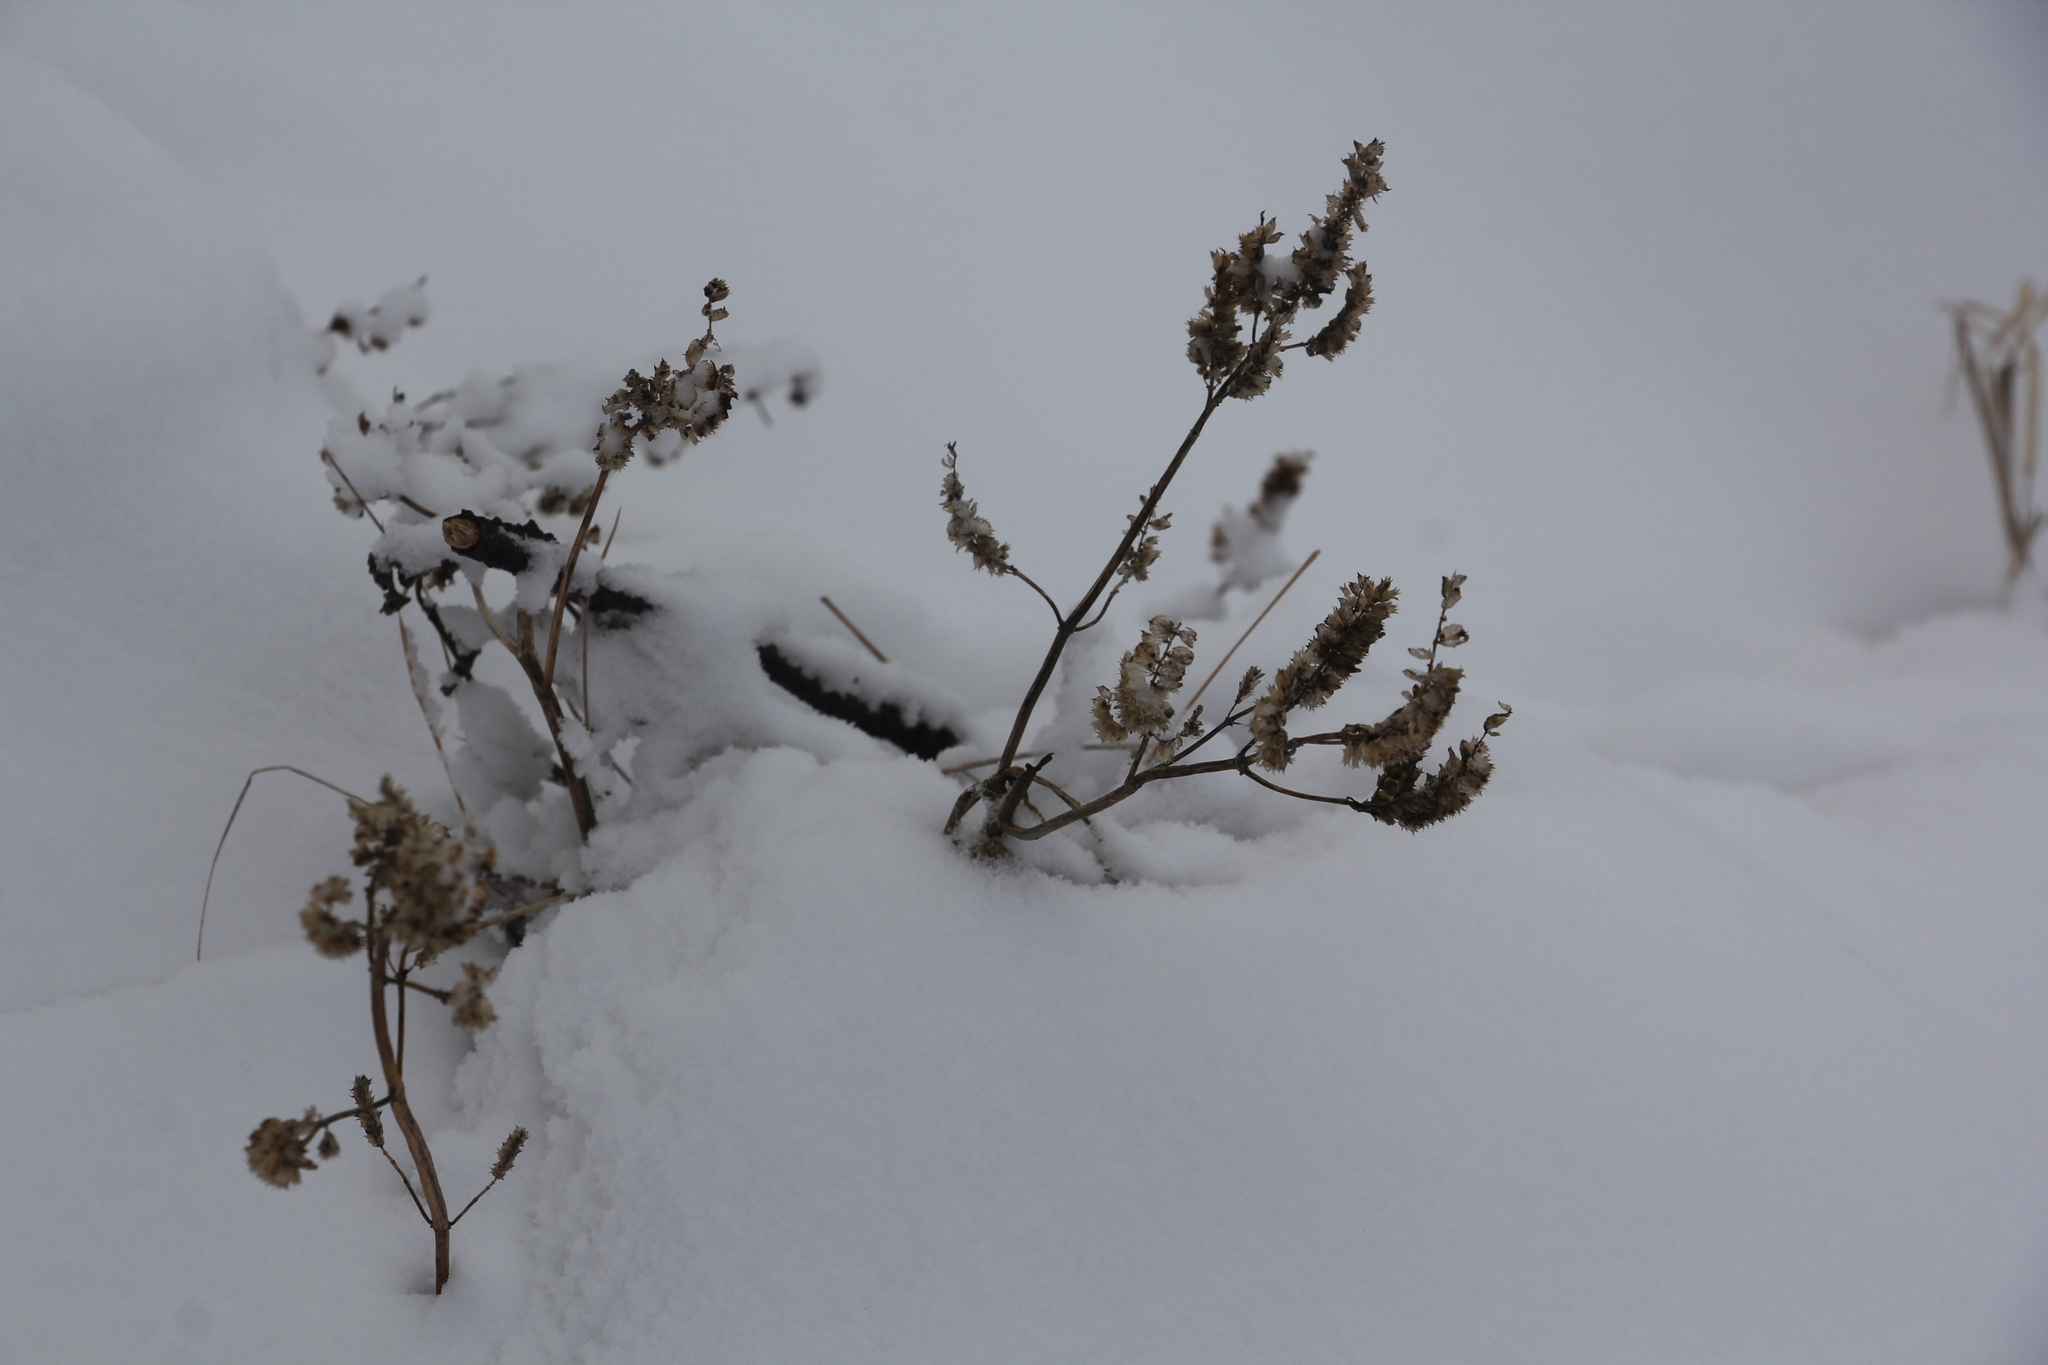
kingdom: Plantae
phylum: Tracheophyta
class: Magnoliopsida
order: Lamiales
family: Lamiaceae
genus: Elsholtzia
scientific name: Elsholtzia ciliata
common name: Ciliate elsholtzia
